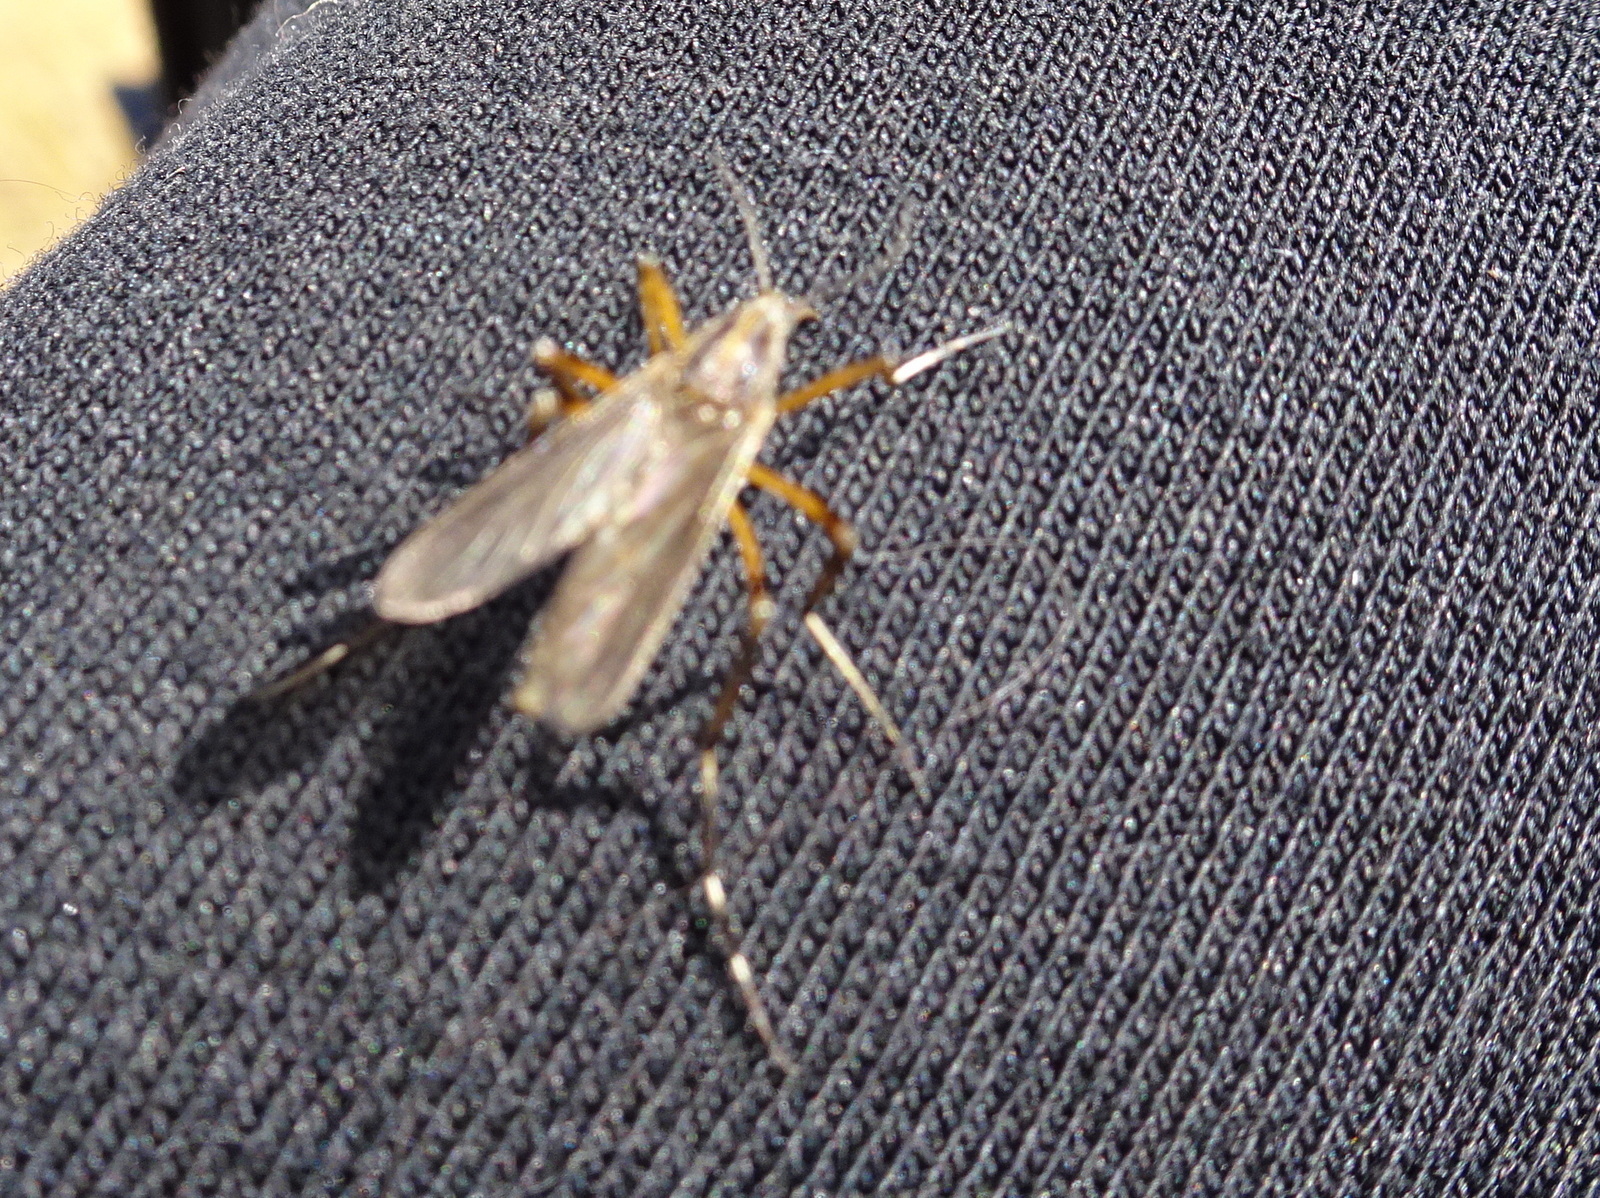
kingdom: Animalia
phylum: Arthropoda
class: Insecta
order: Diptera
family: Culicidae
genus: Psorophora
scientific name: Psorophora ciliata
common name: Gallinipper
